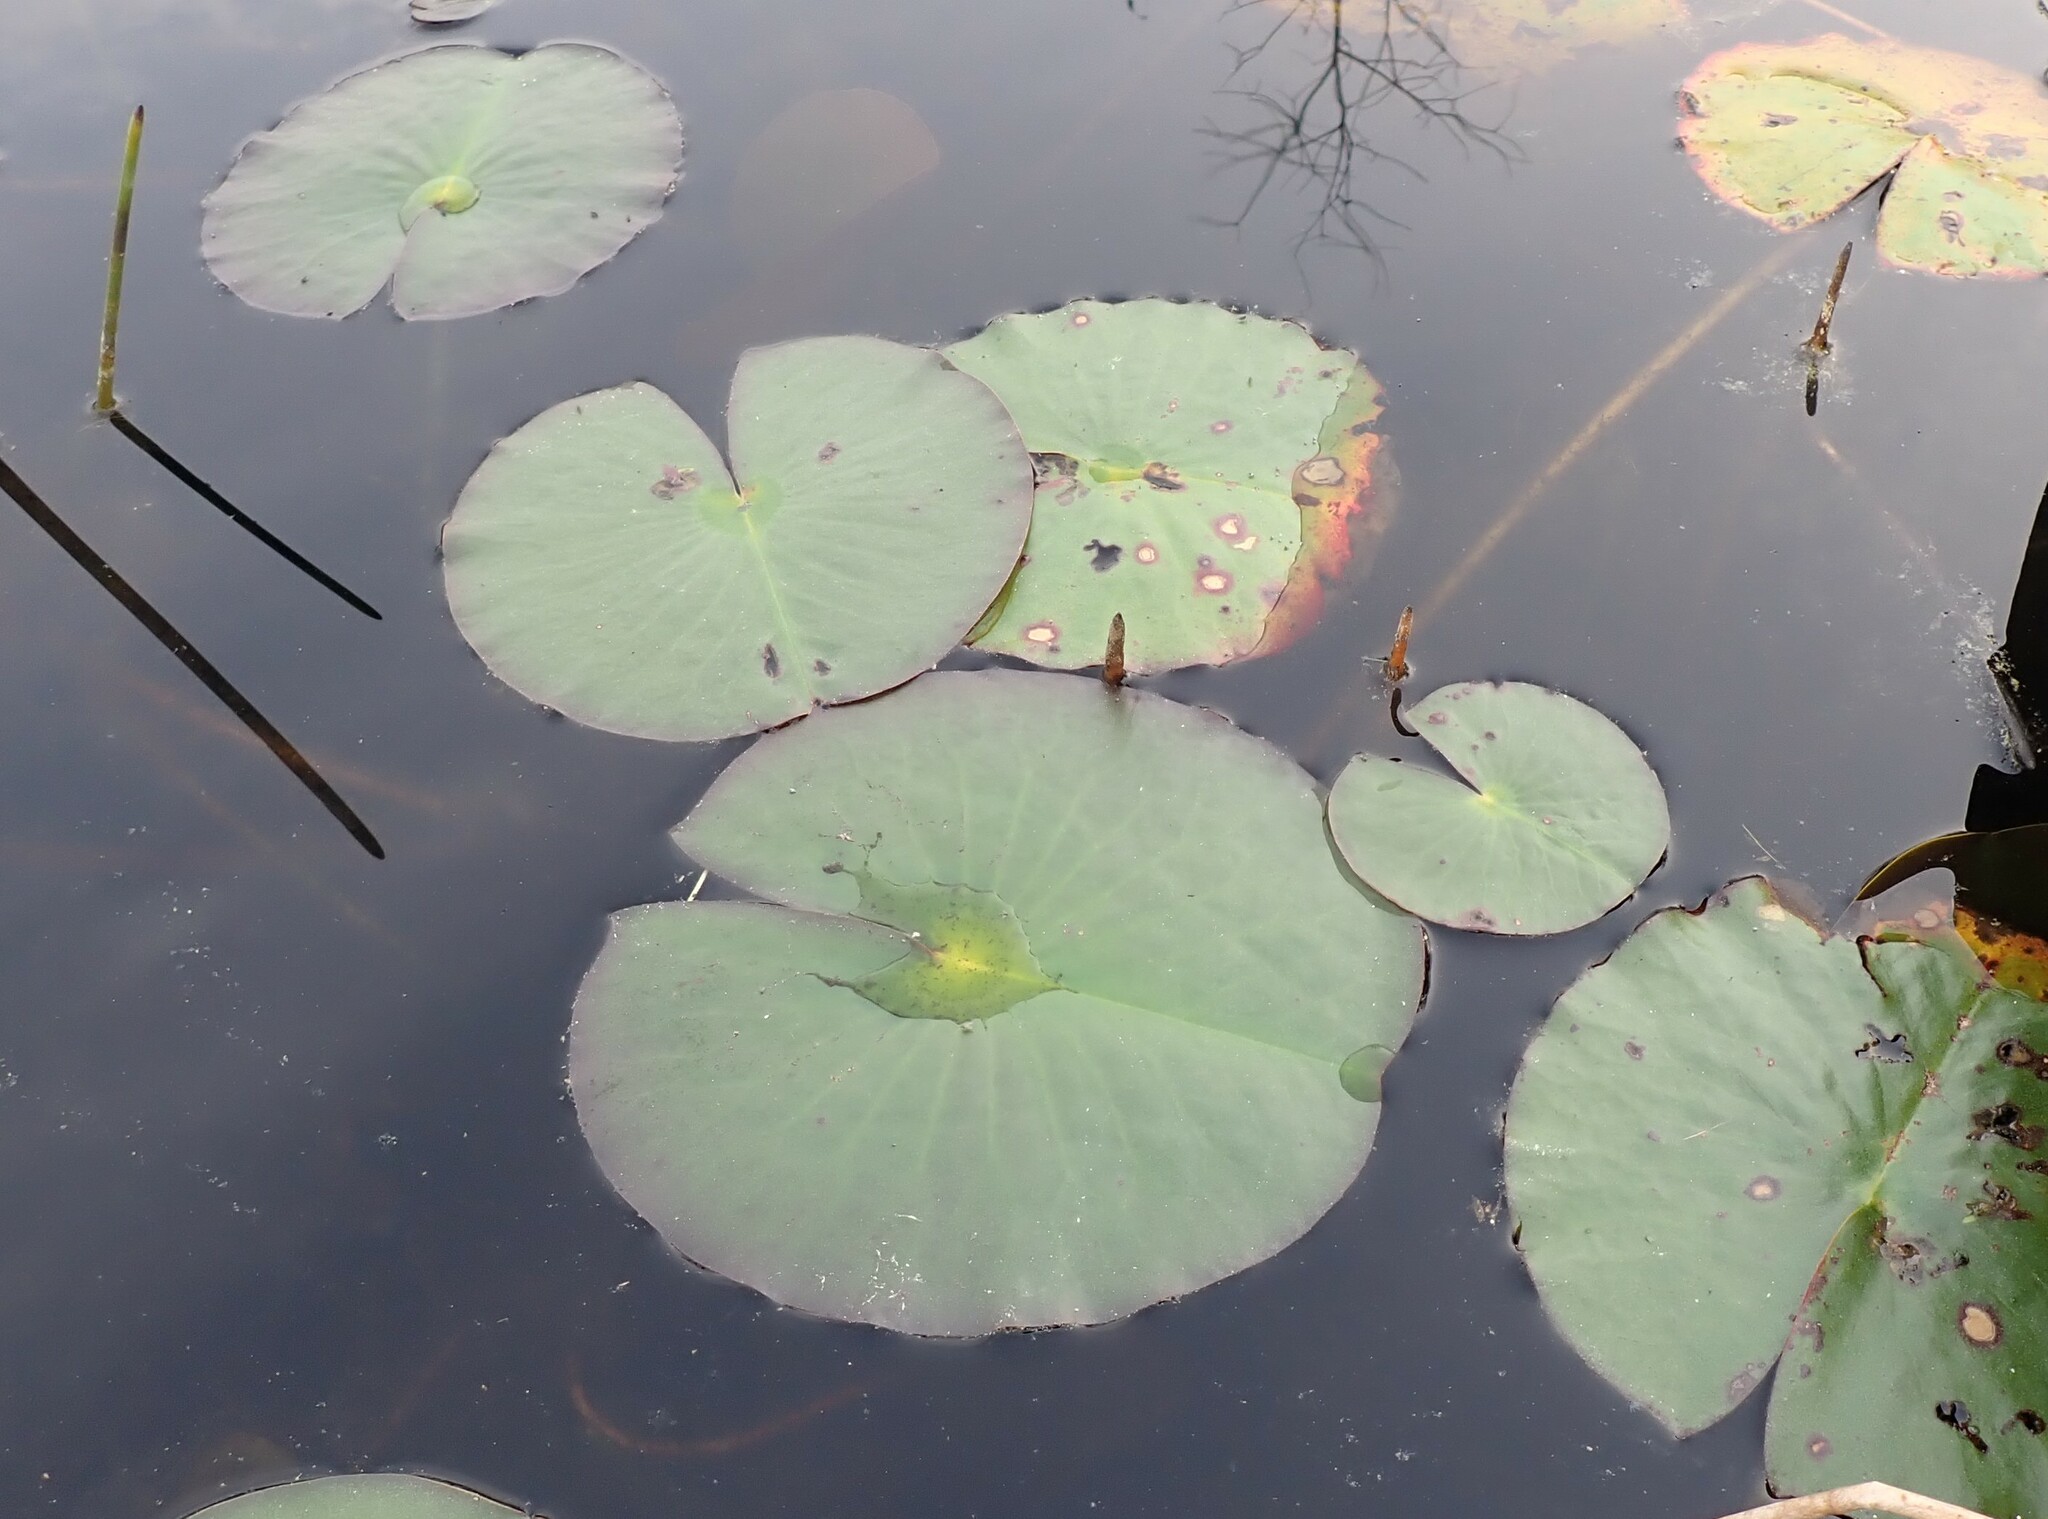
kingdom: Plantae
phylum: Tracheophyta
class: Magnoliopsida
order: Nymphaeales
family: Nymphaeaceae
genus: Nymphaea
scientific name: Nymphaea odorata
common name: Fragrant water-lily
